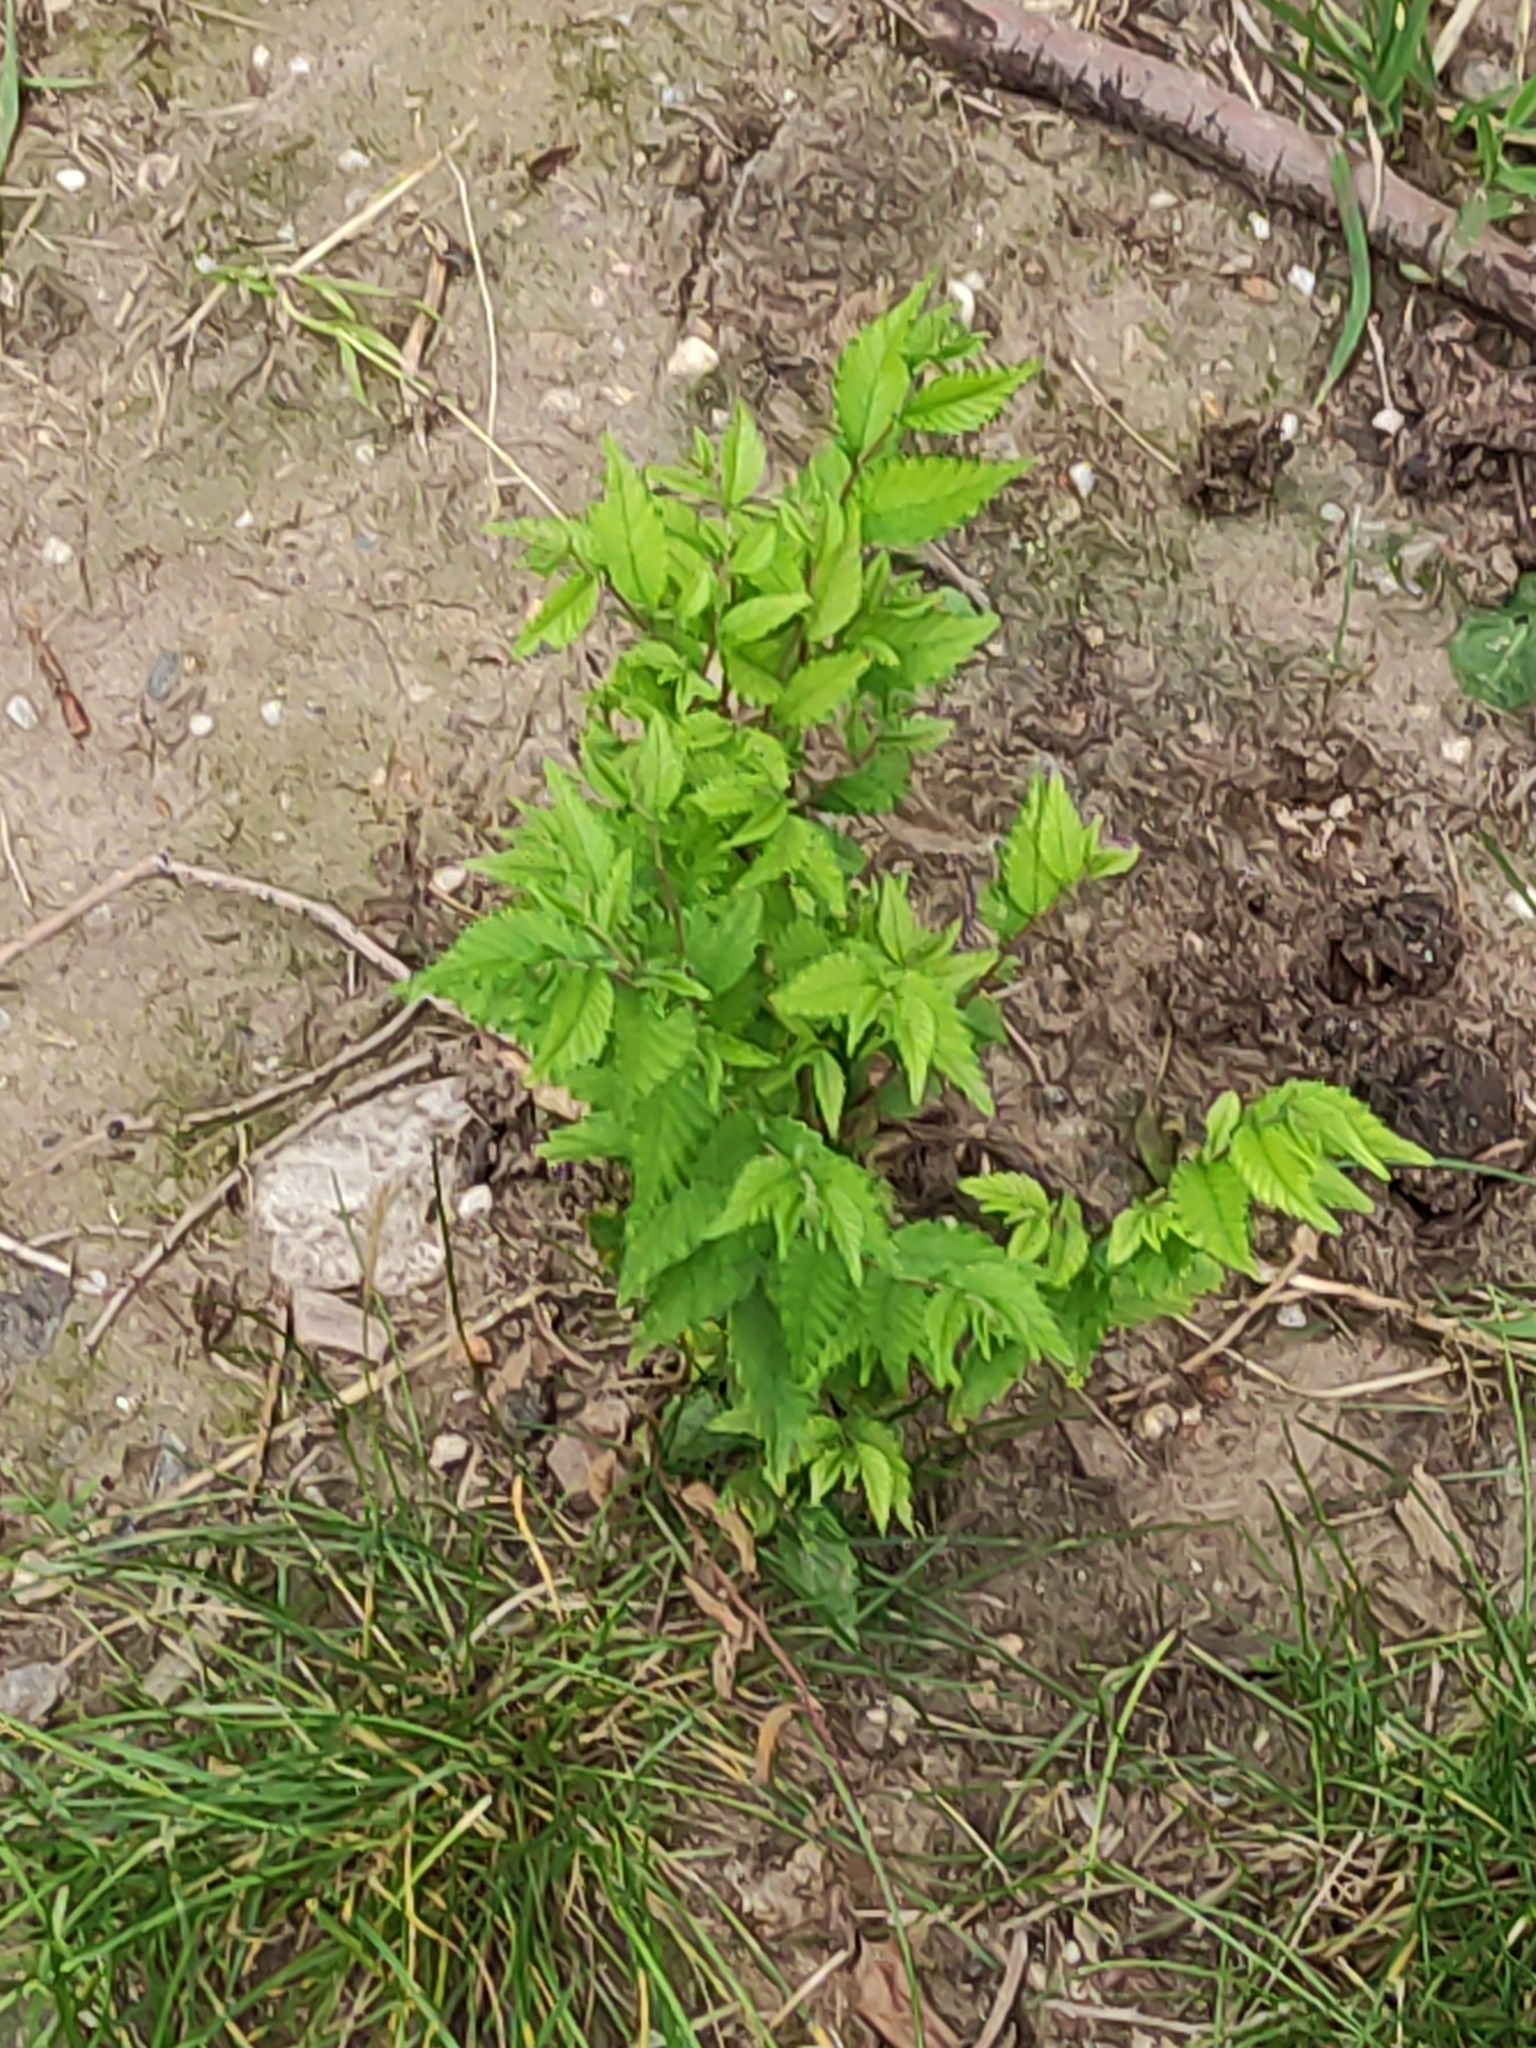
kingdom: Plantae
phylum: Tracheophyta
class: Magnoliopsida
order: Rosales
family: Ulmaceae
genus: Ulmus
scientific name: Ulmus pumila
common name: Siberian elm
